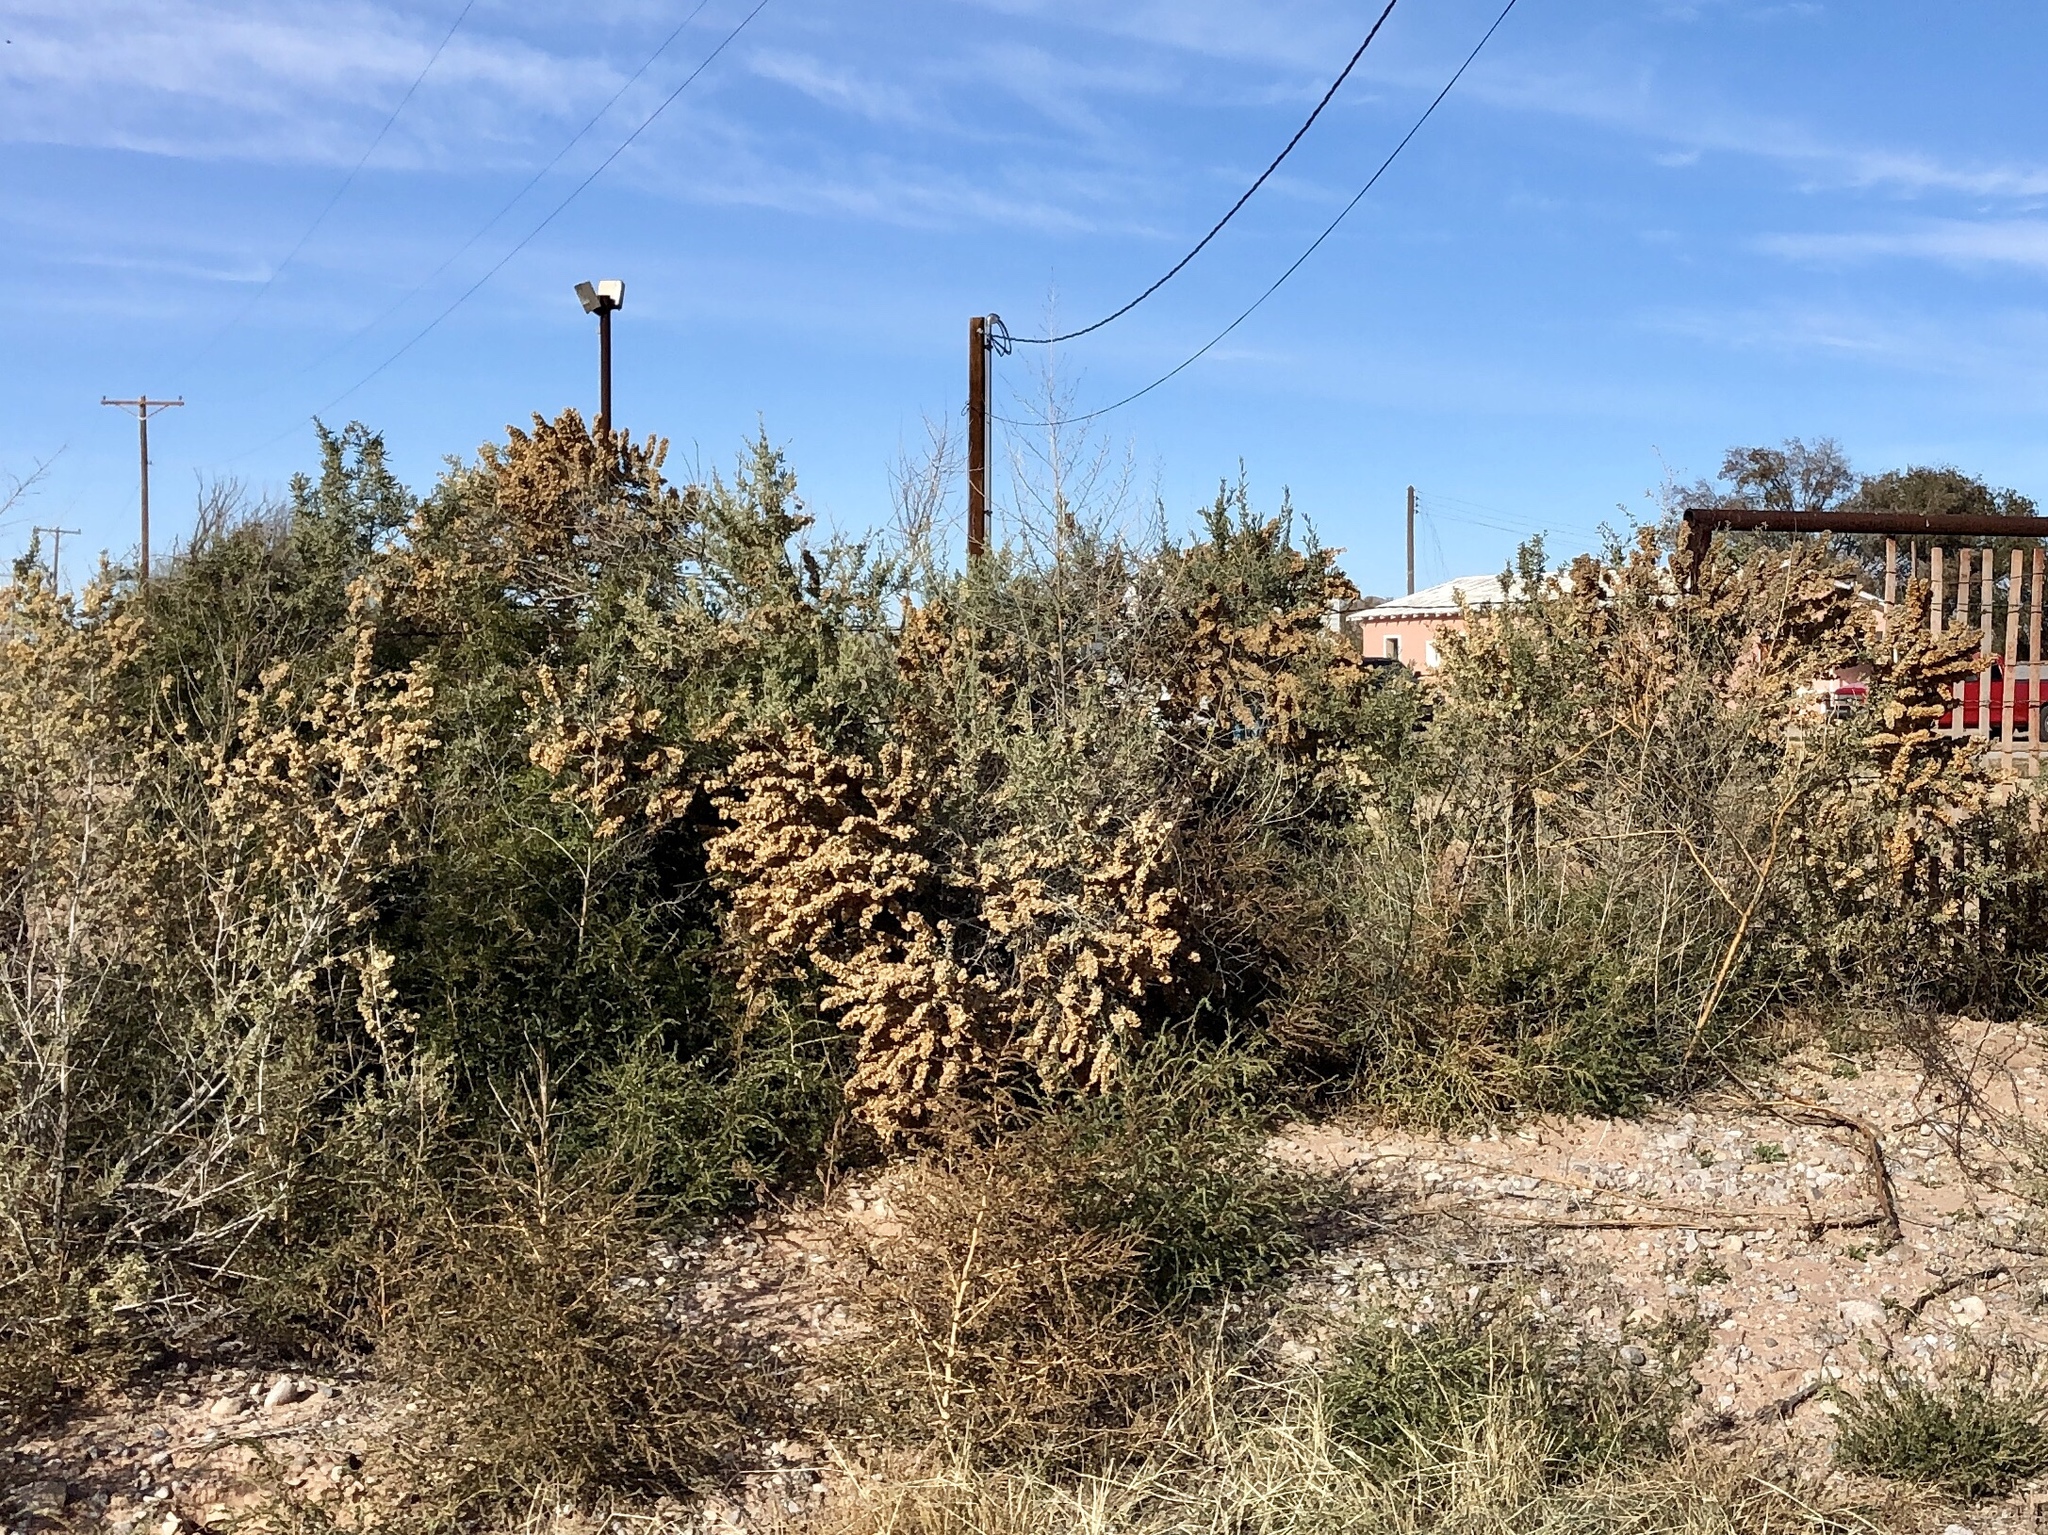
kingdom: Plantae
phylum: Tracheophyta
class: Magnoliopsida
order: Caryophyllales
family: Amaranthaceae
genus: Atriplex
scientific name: Atriplex canescens
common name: Four-wing saltbush
